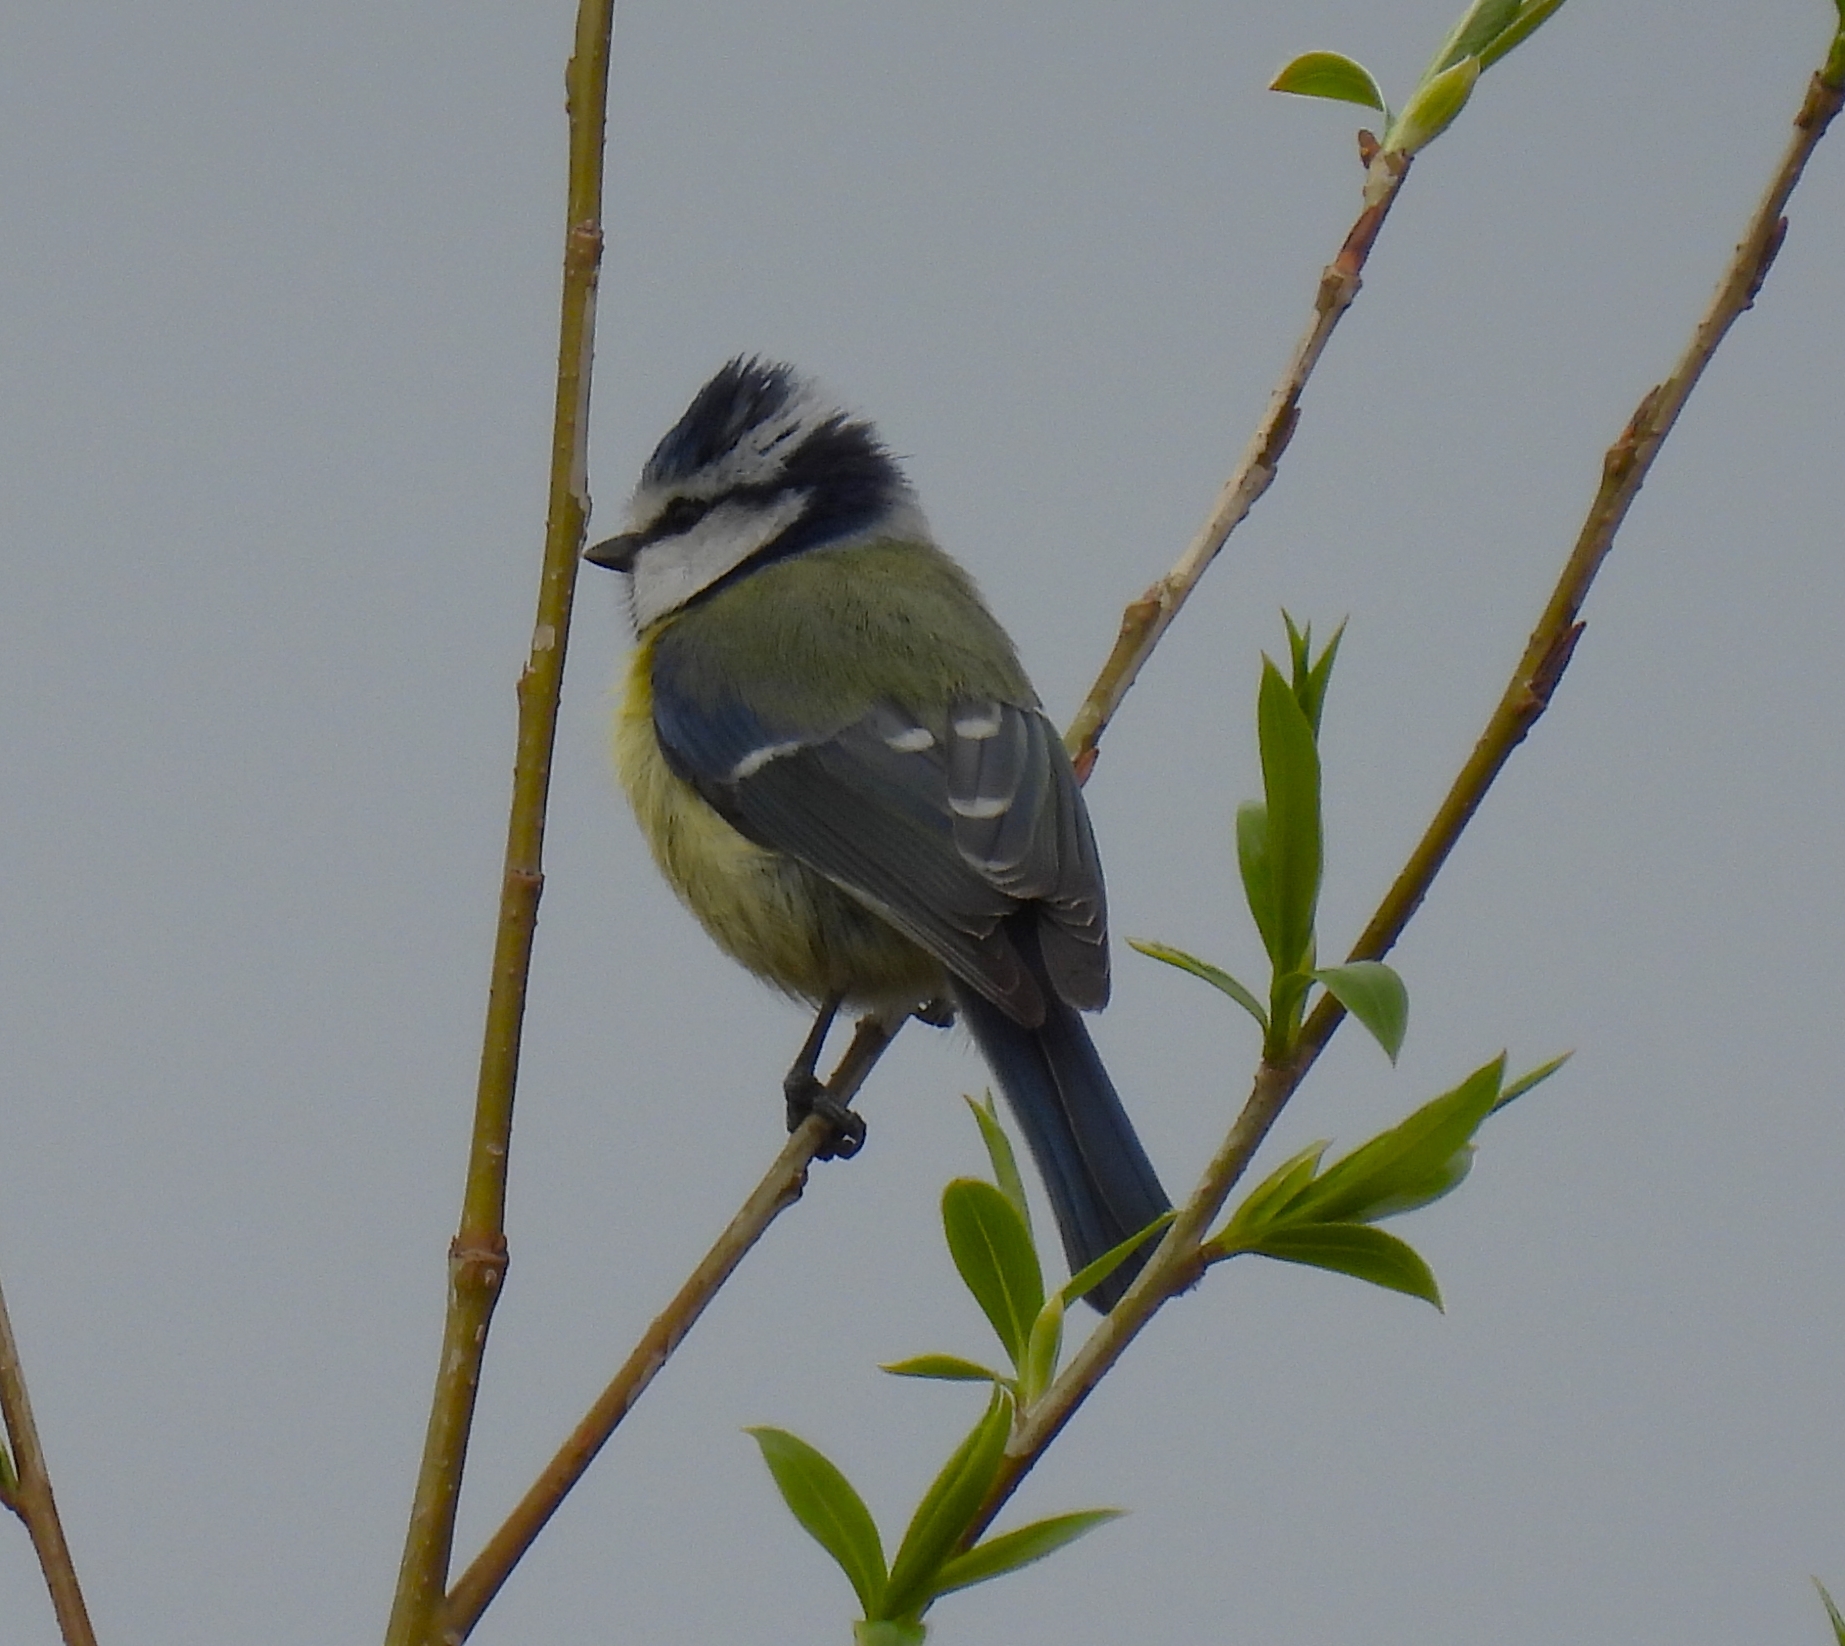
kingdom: Animalia
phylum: Chordata
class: Aves
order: Passeriformes
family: Paridae
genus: Cyanistes
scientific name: Cyanistes caeruleus
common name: Eurasian blue tit
